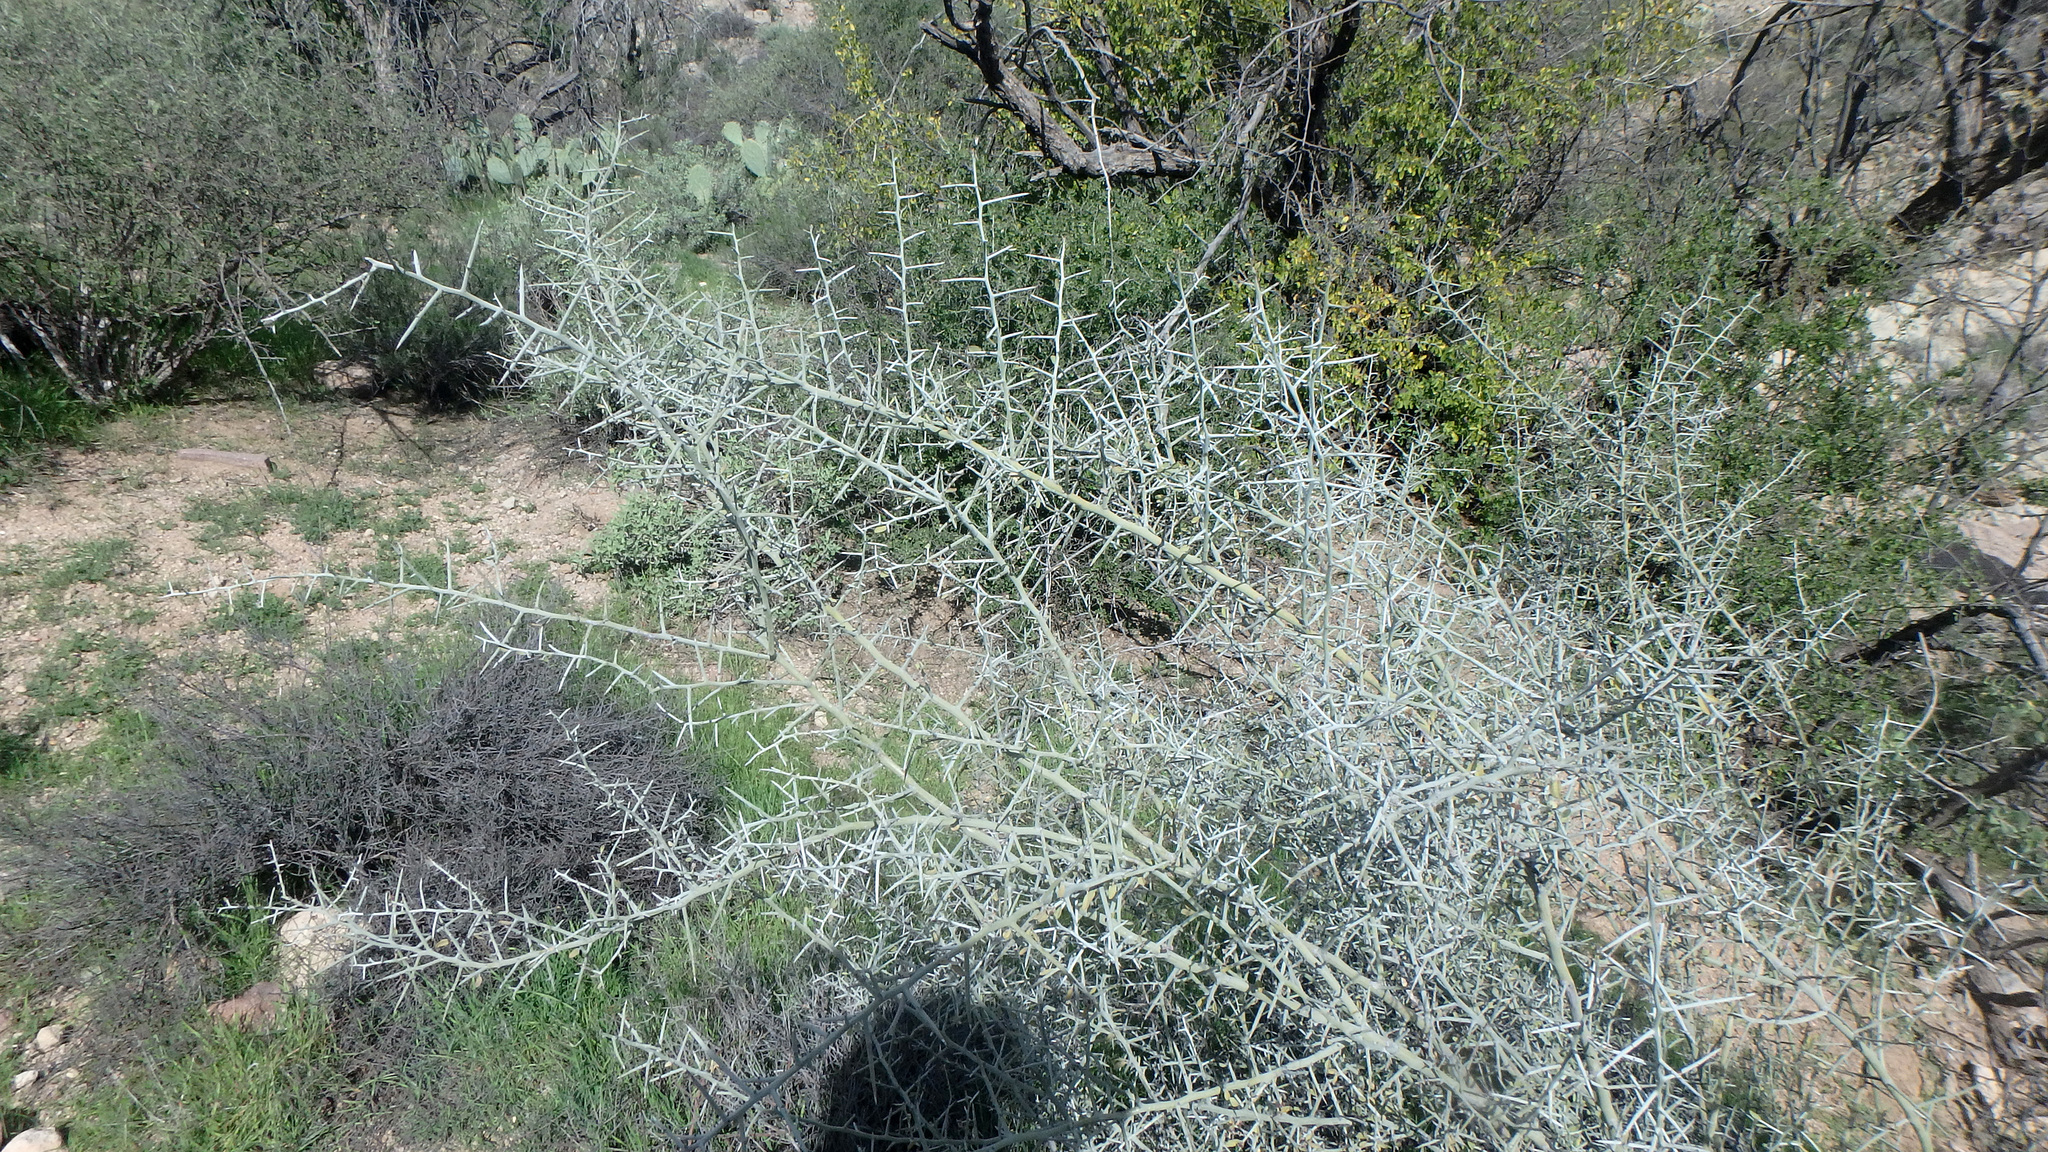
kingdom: Plantae
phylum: Tracheophyta
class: Magnoliopsida
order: Rosales
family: Rhamnaceae
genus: Sarcomphalus
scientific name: Sarcomphalus obtusifolius
